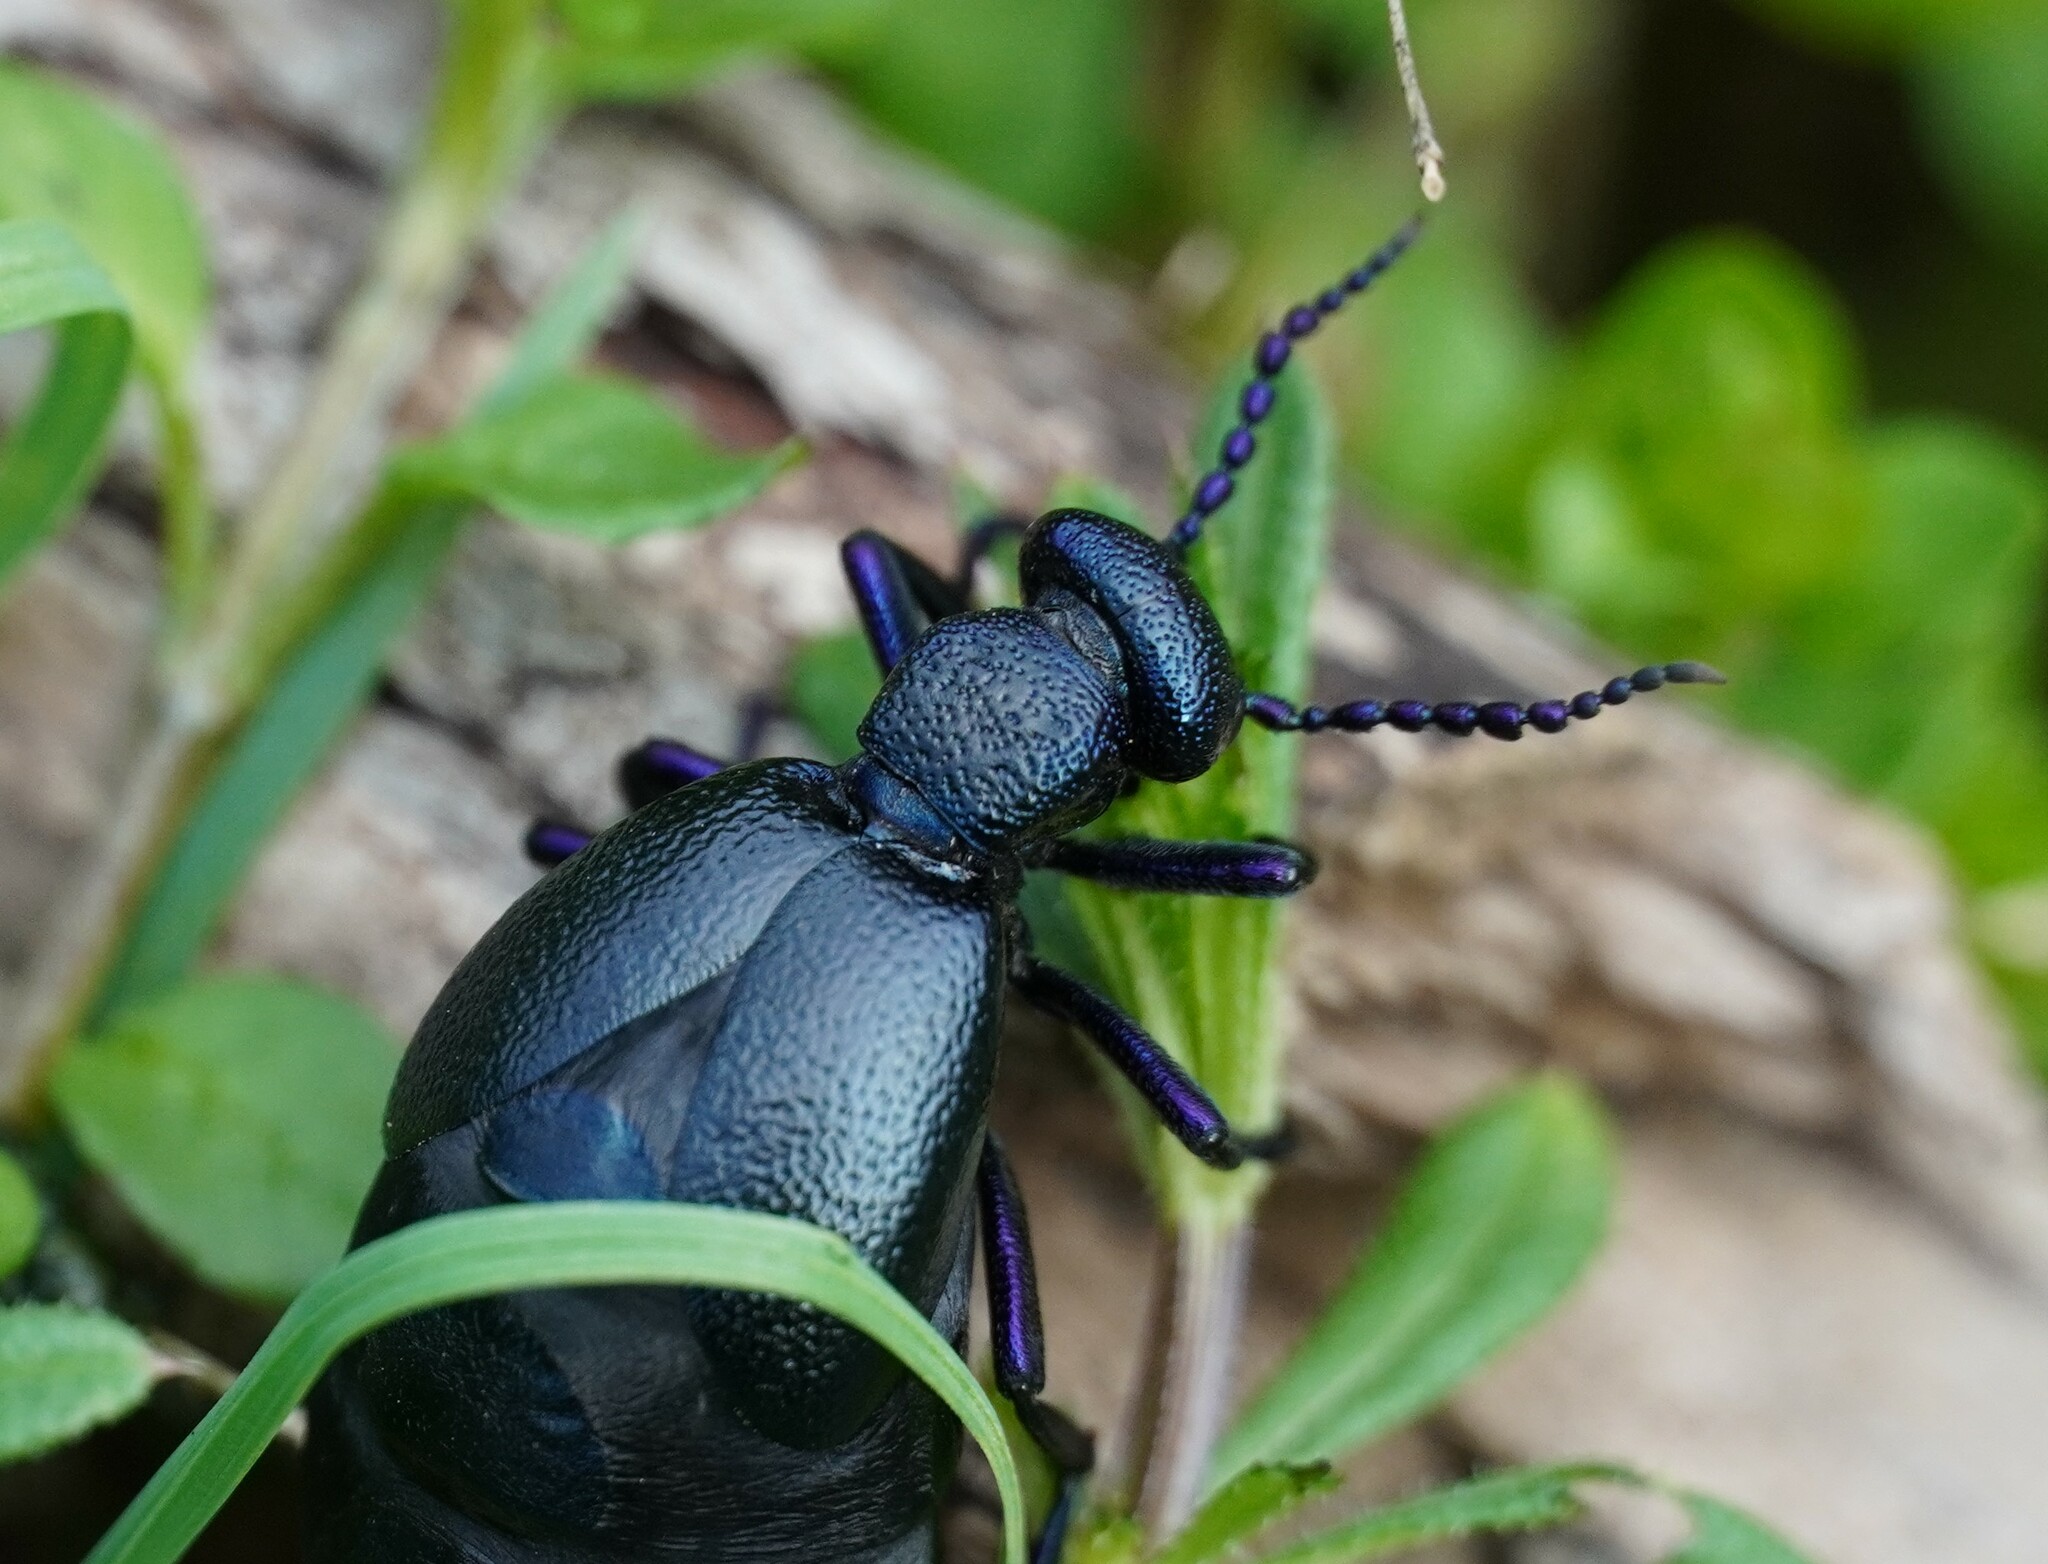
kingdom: Animalia
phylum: Arthropoda
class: Insecta
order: Coleoptera
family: Meloidae
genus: Meloe
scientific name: Meloe proscarabaeus
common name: Black oil-beetle
